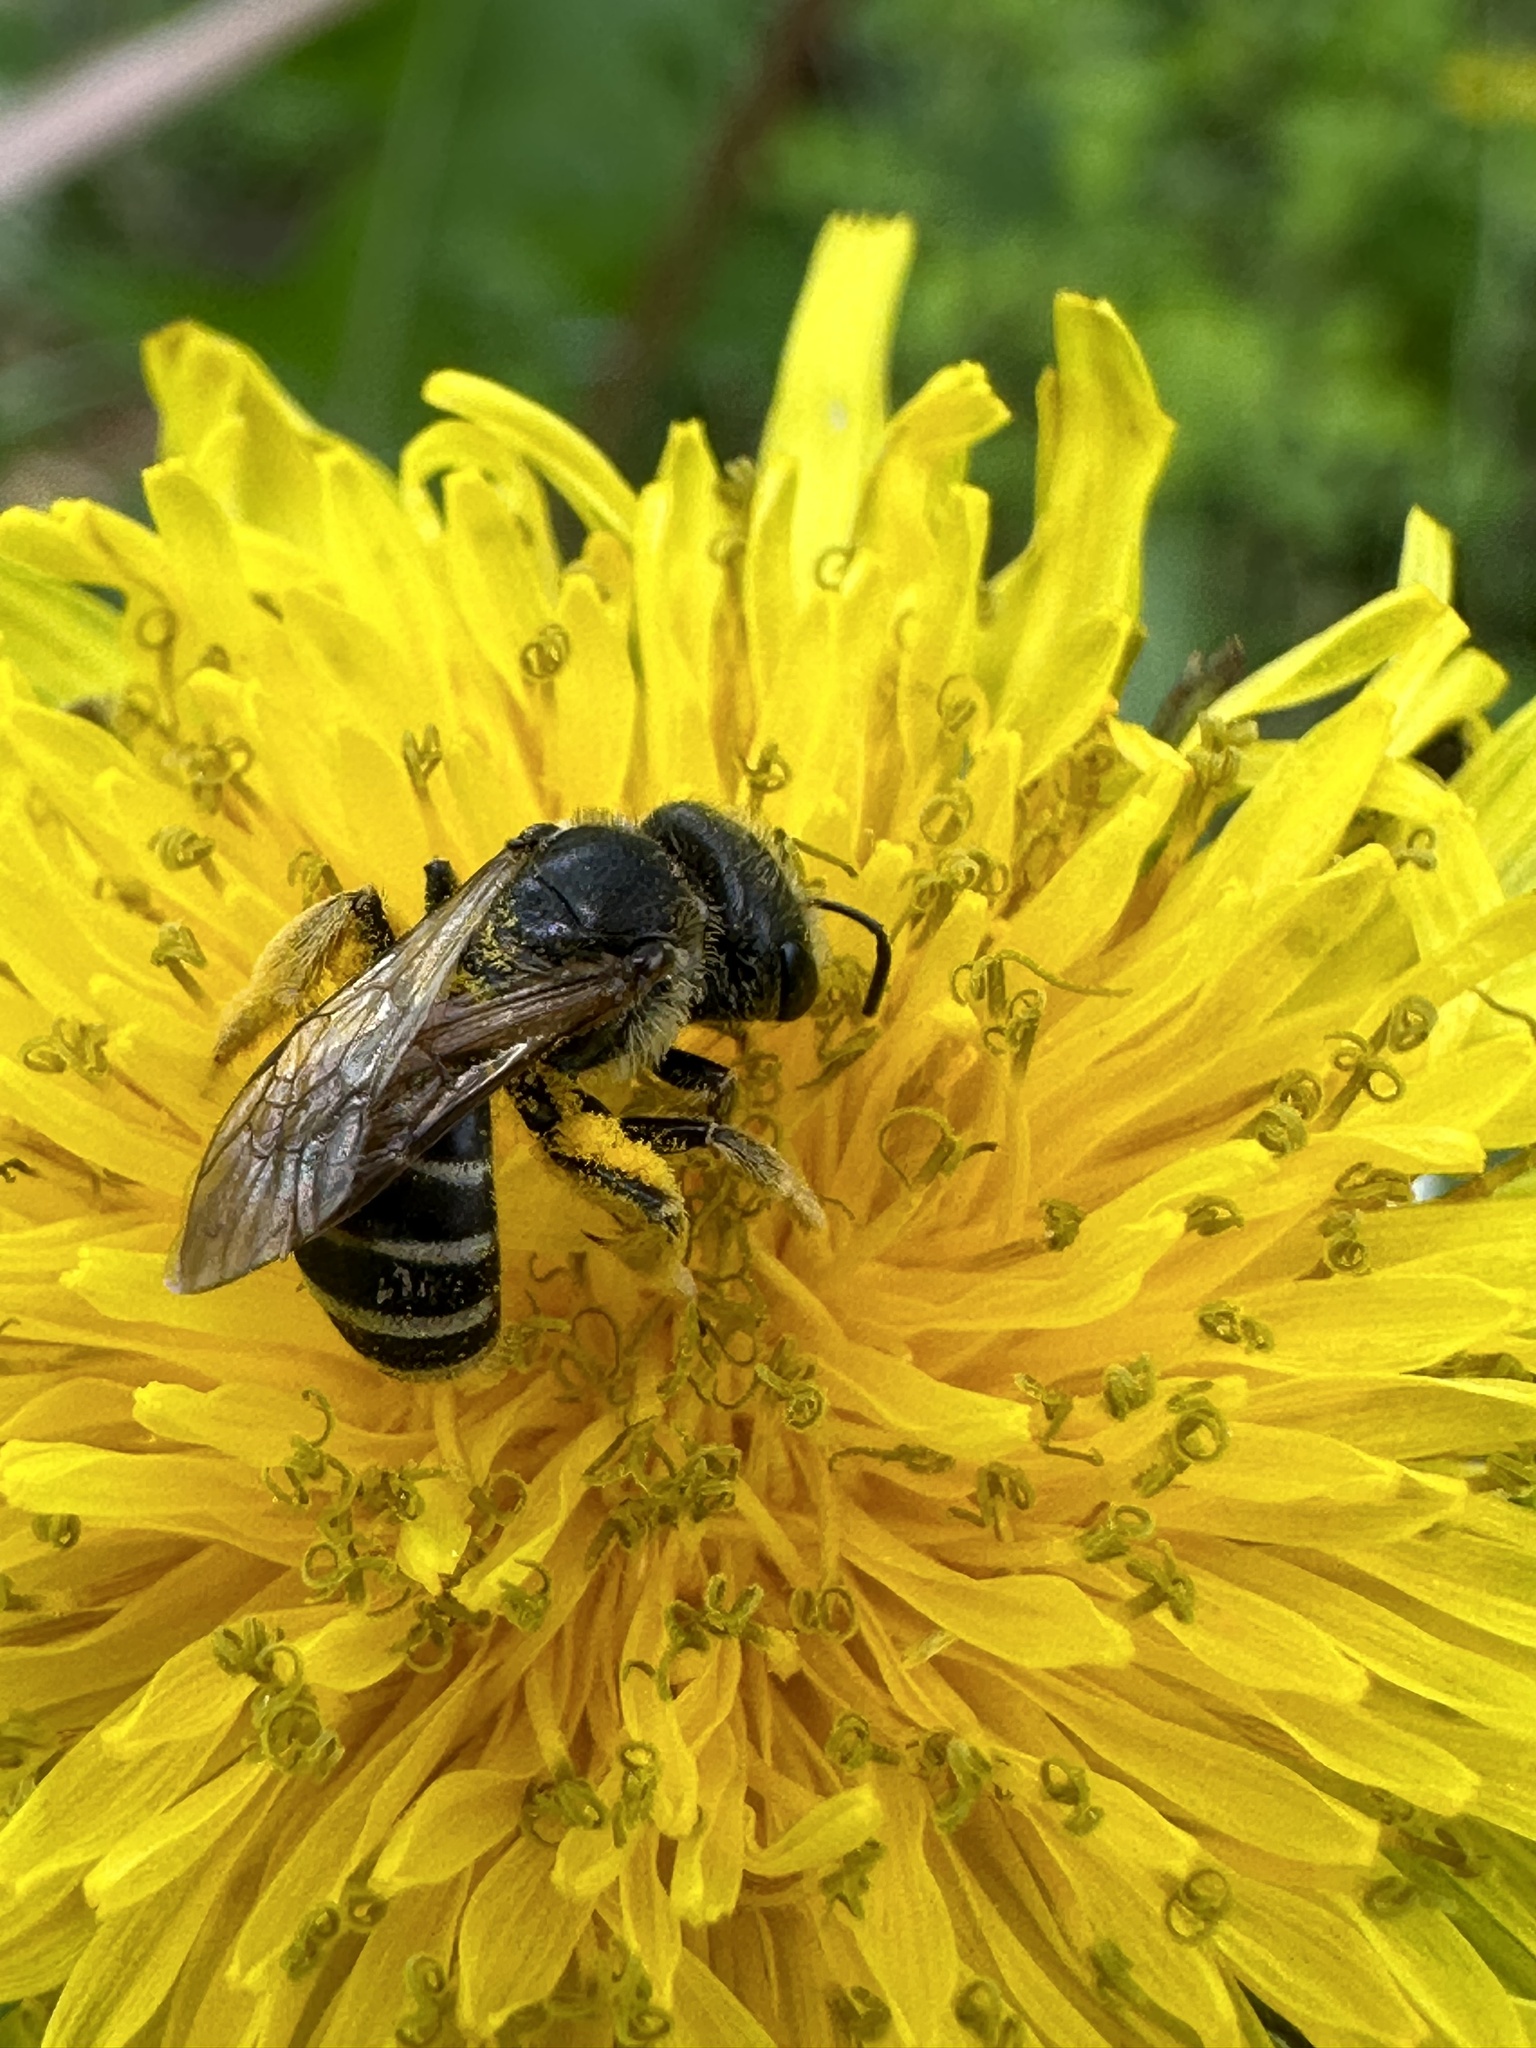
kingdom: Animalia
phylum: Arthropoda
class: Insecta
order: Hymenoptera
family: Halictidae
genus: Halictus
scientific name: Halictus ligatus
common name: Ligated furrow bee
